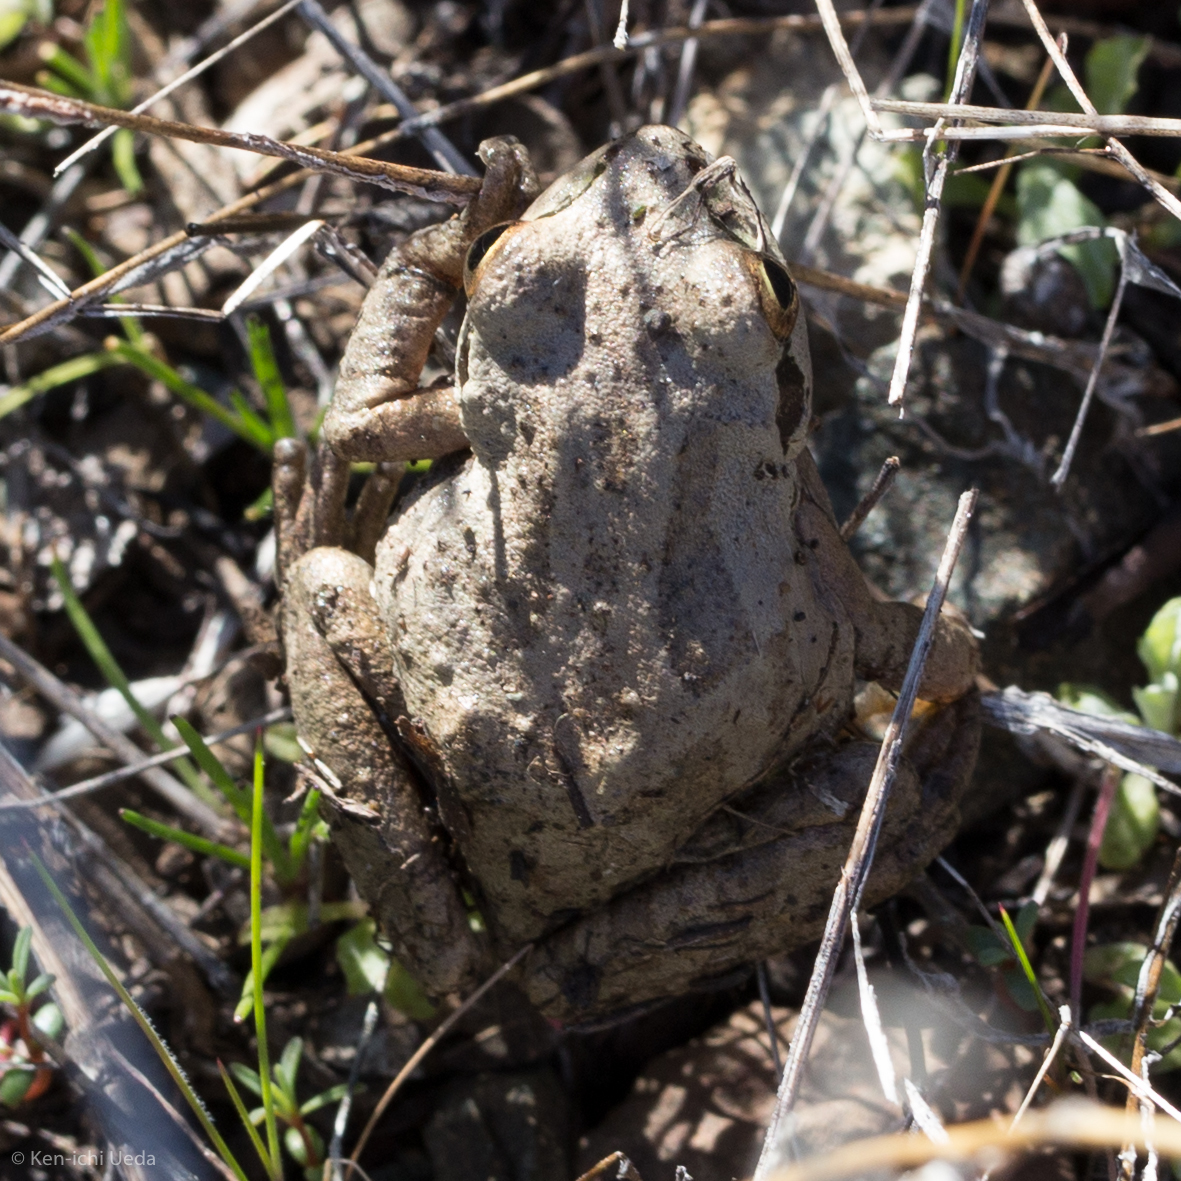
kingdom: Animalia
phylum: Chordata
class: Amphibia
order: Anura
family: Hylidae
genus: Pseudacris
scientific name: Pseudacris regilla
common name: Pacific chorus frog
